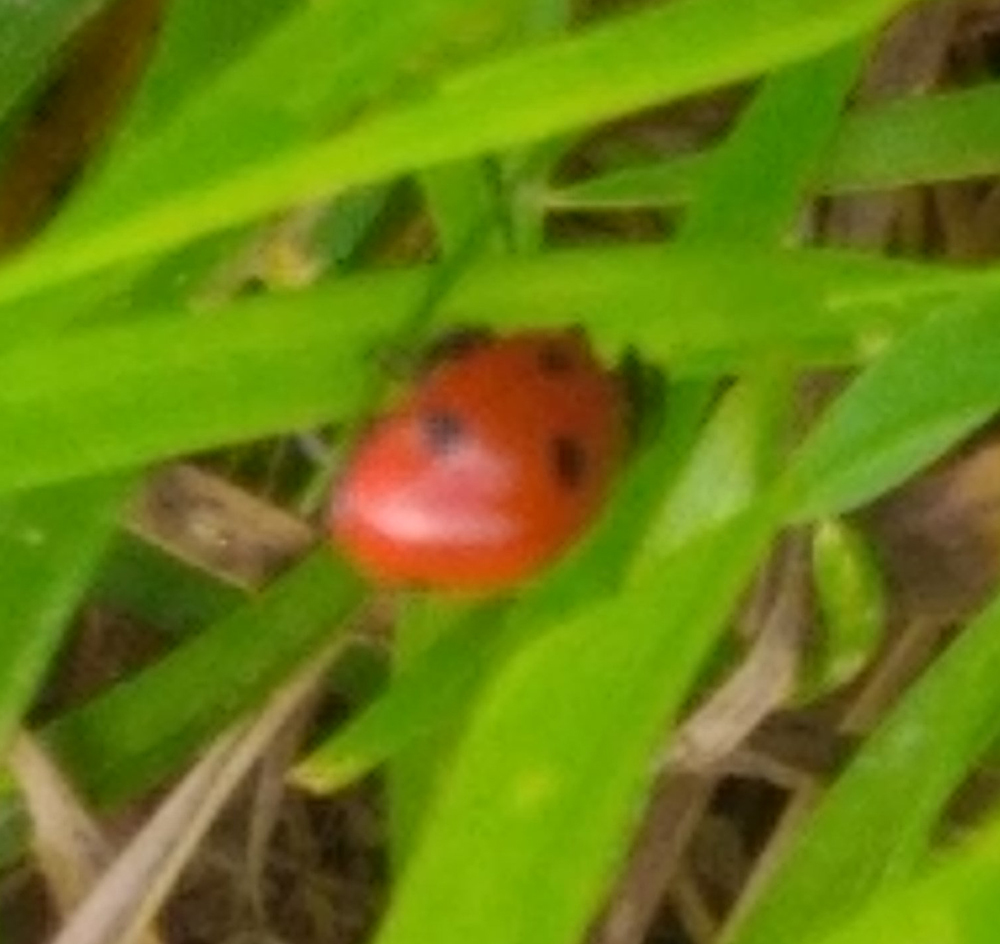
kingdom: Animalia
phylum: Arthropoda
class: Insecta
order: Coleoptera
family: Coccinellidae
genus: Coccinella
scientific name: Coccinella septempunctata
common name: Sevenspotted lady beetle
